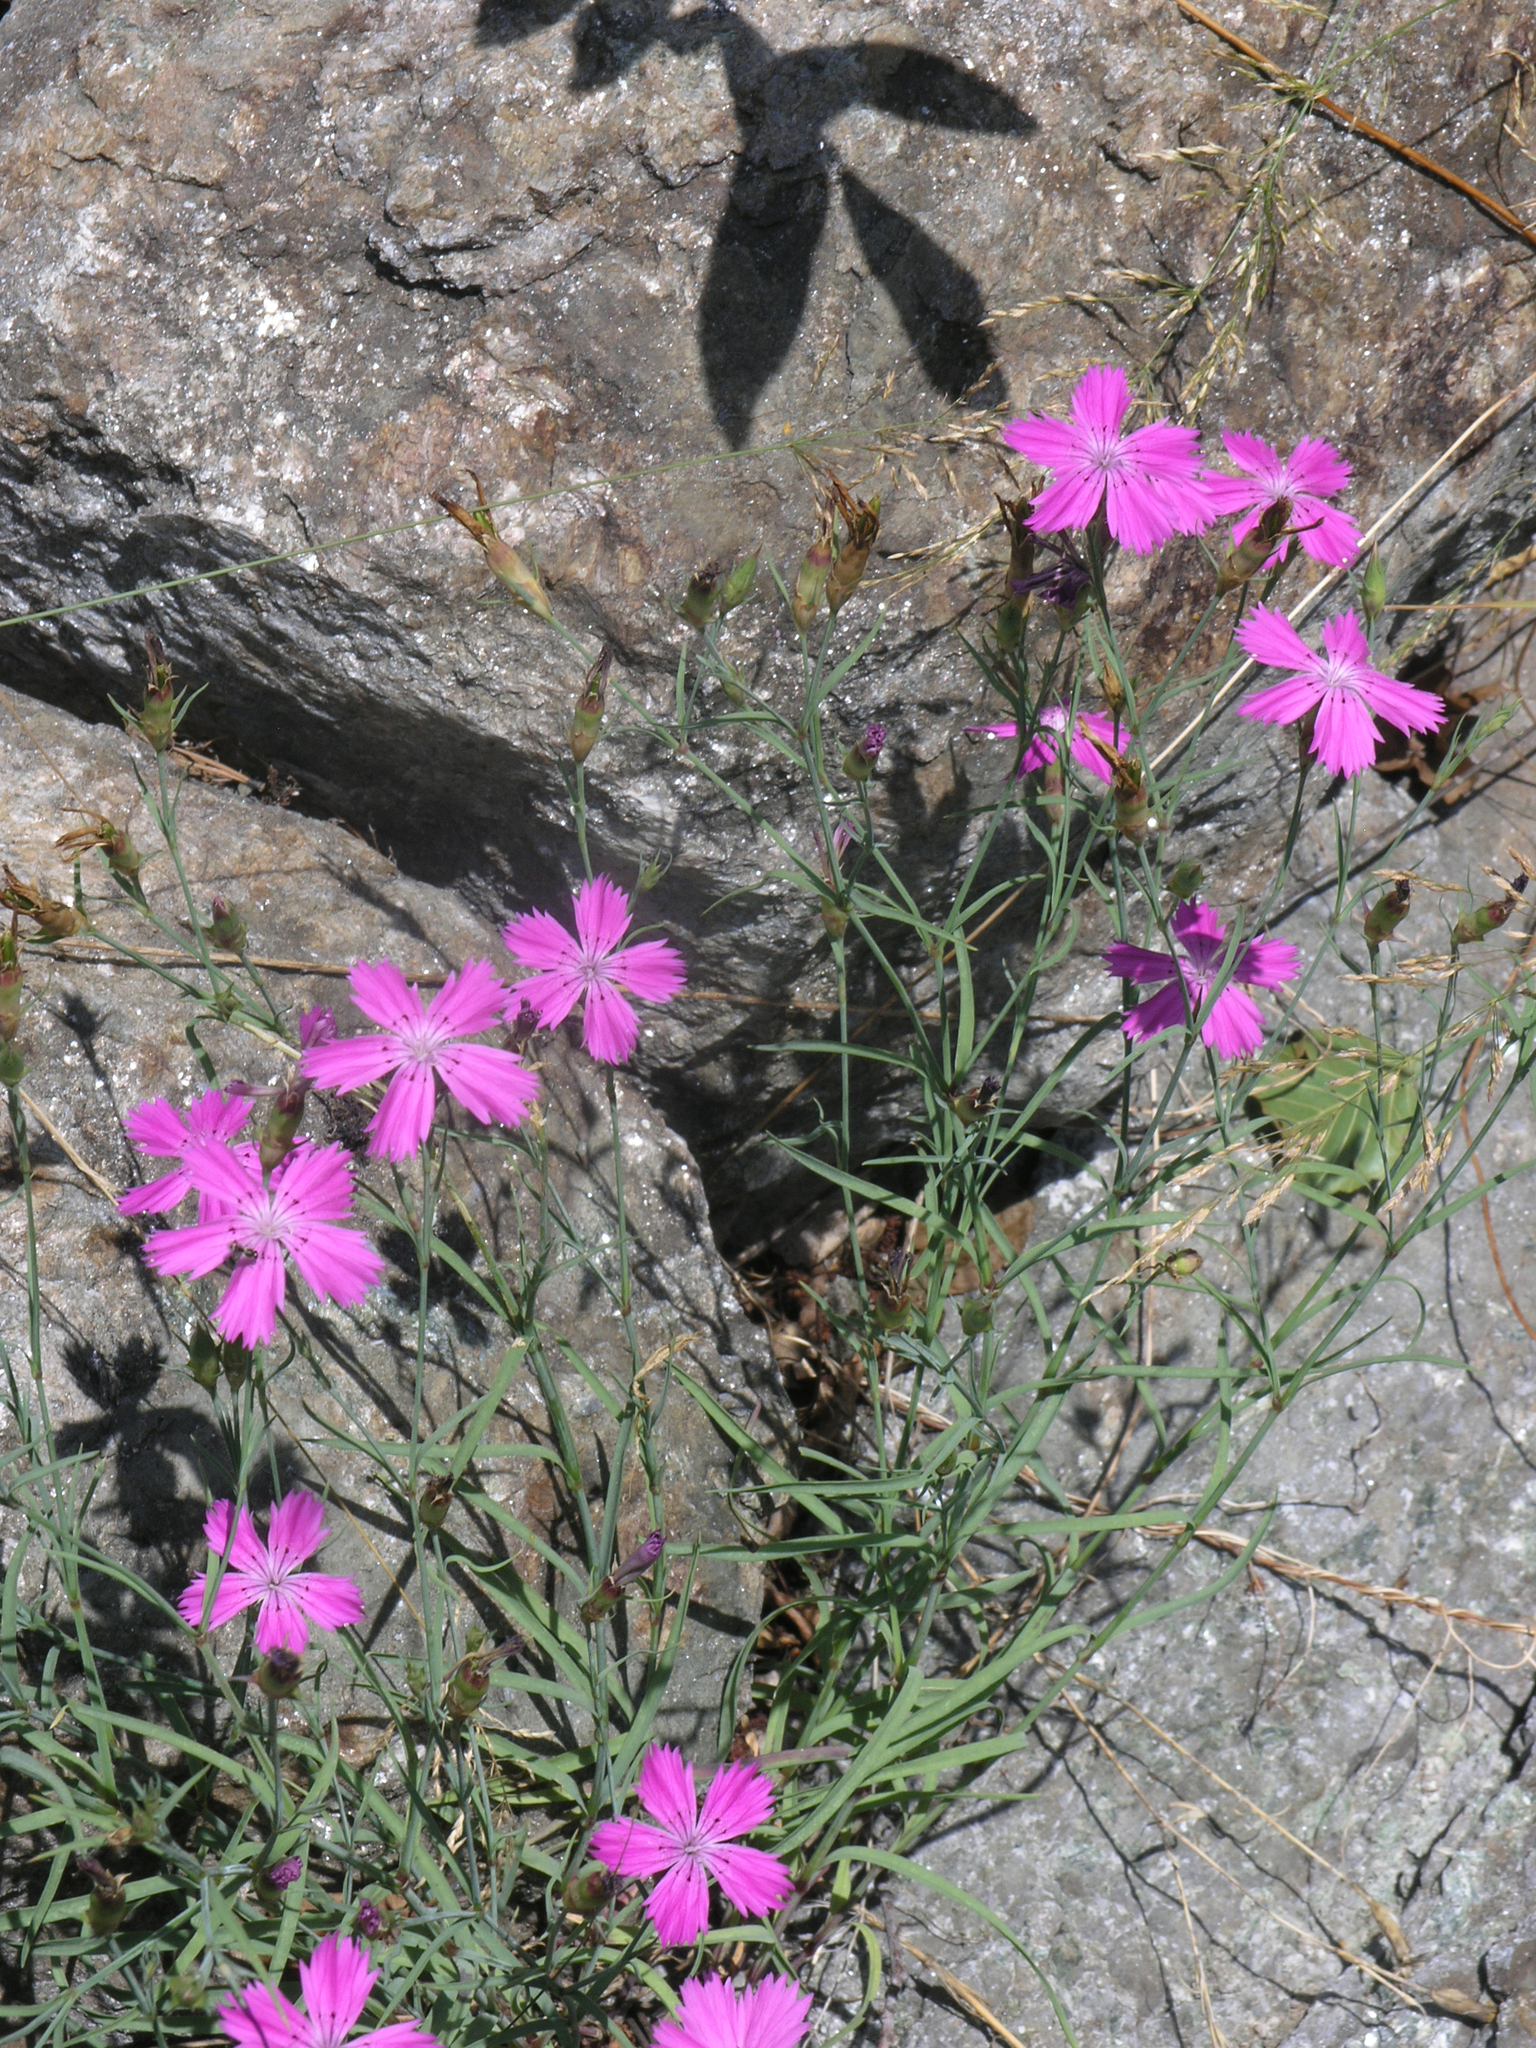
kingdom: Plantae
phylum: Tracheophyta
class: Magnoliopsida
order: Caryophyllales
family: Caryophyllaceae
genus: Dianthus
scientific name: Dianthus chinensis
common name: Rainbow pink
